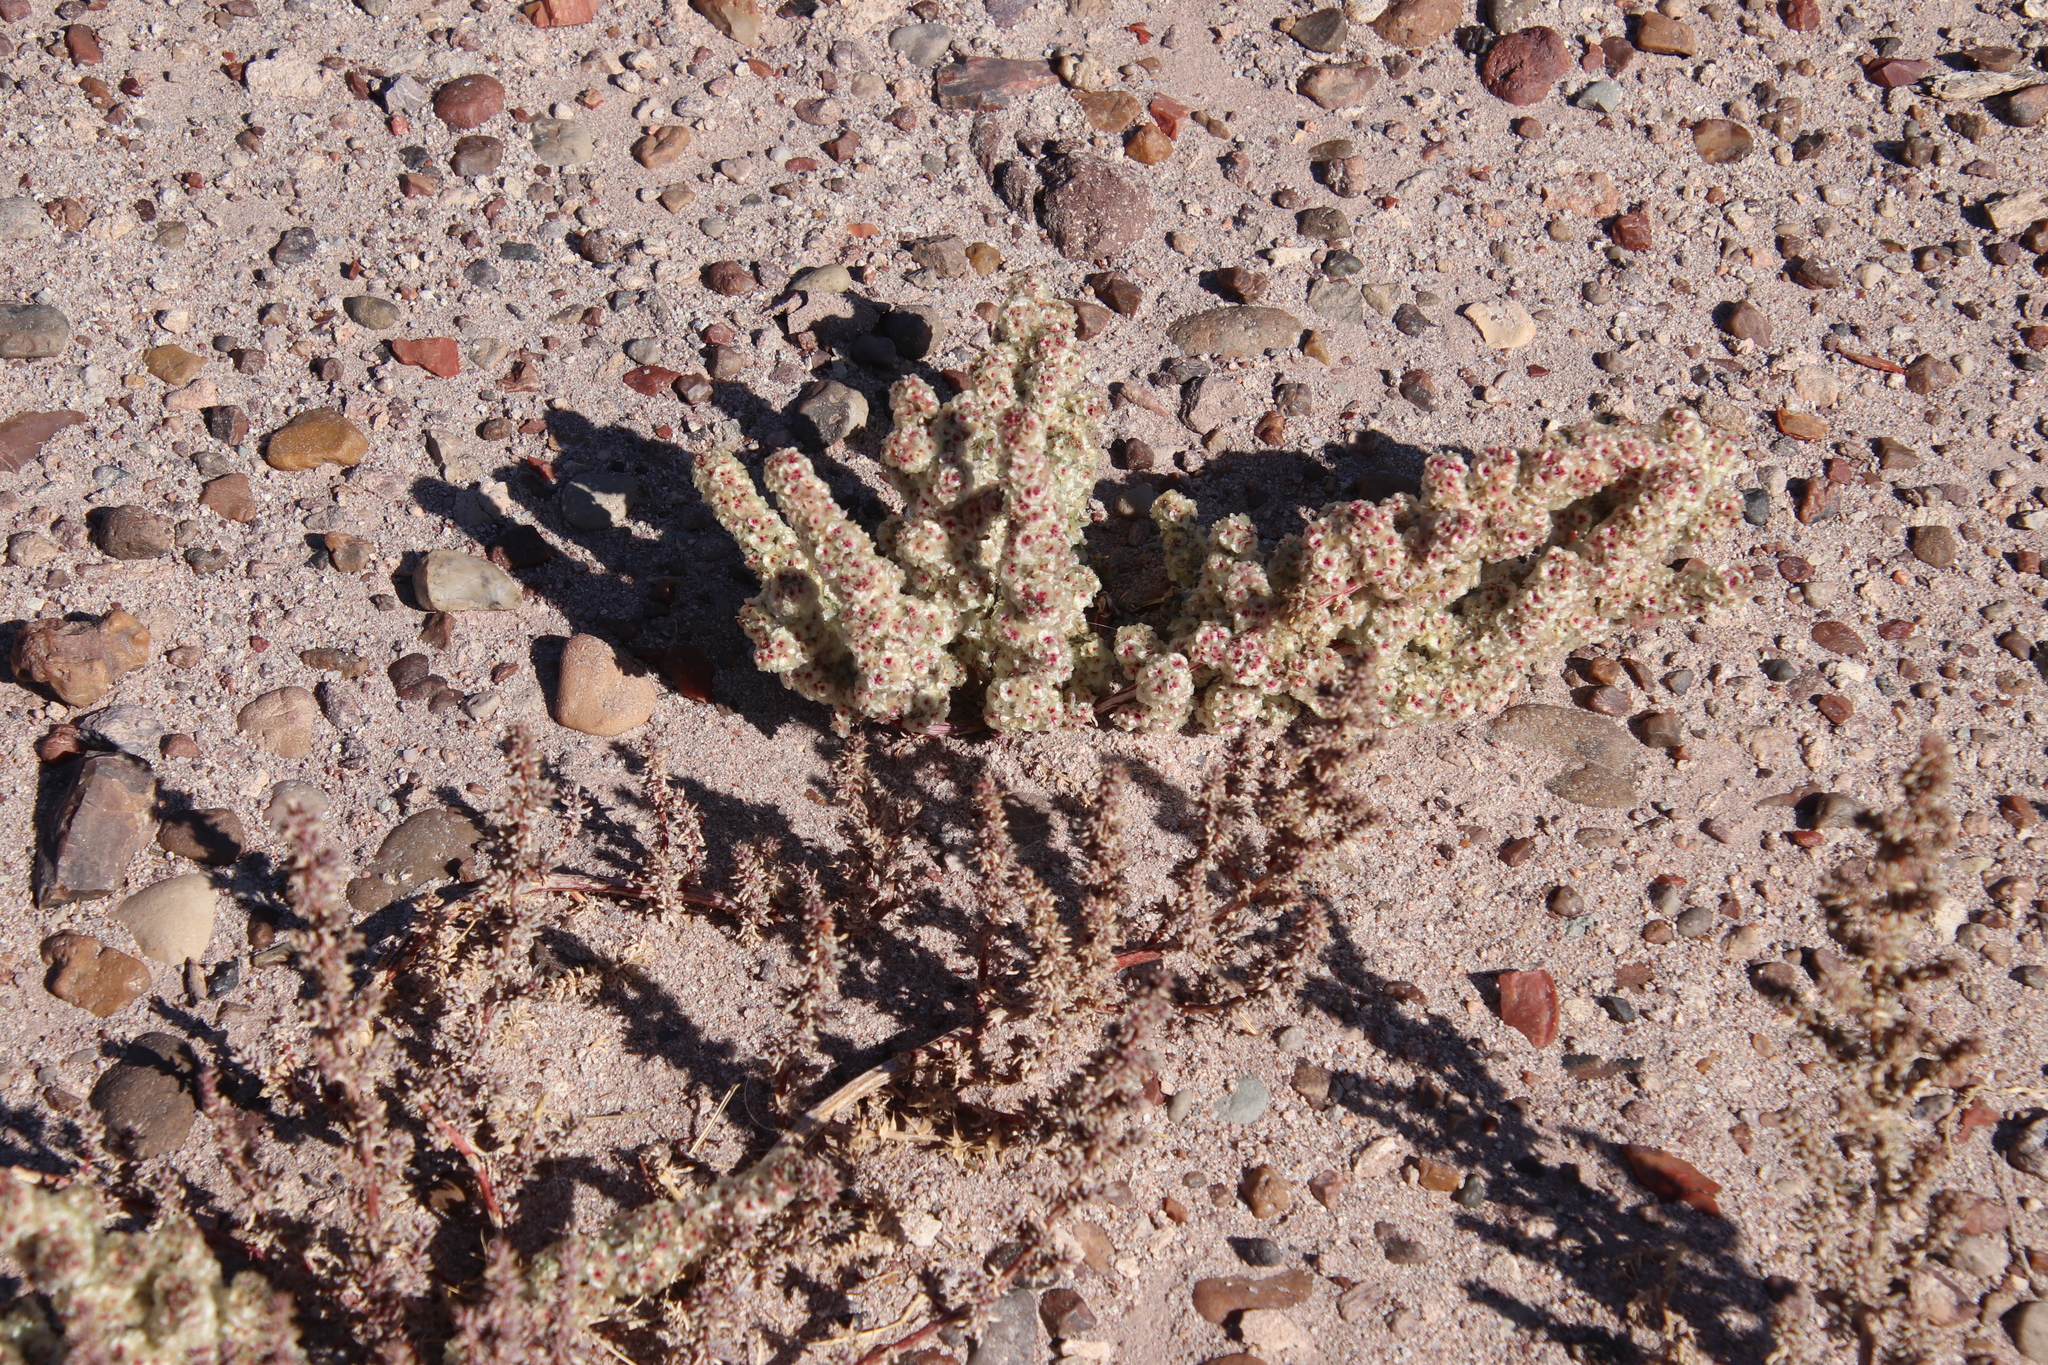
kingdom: Plantae
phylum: Tracheophyta
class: Magnoliopsida
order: Caryophyllales
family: Amaranthaceae
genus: Halogeton
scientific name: Halogeton glomeratus
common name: Saltlover
